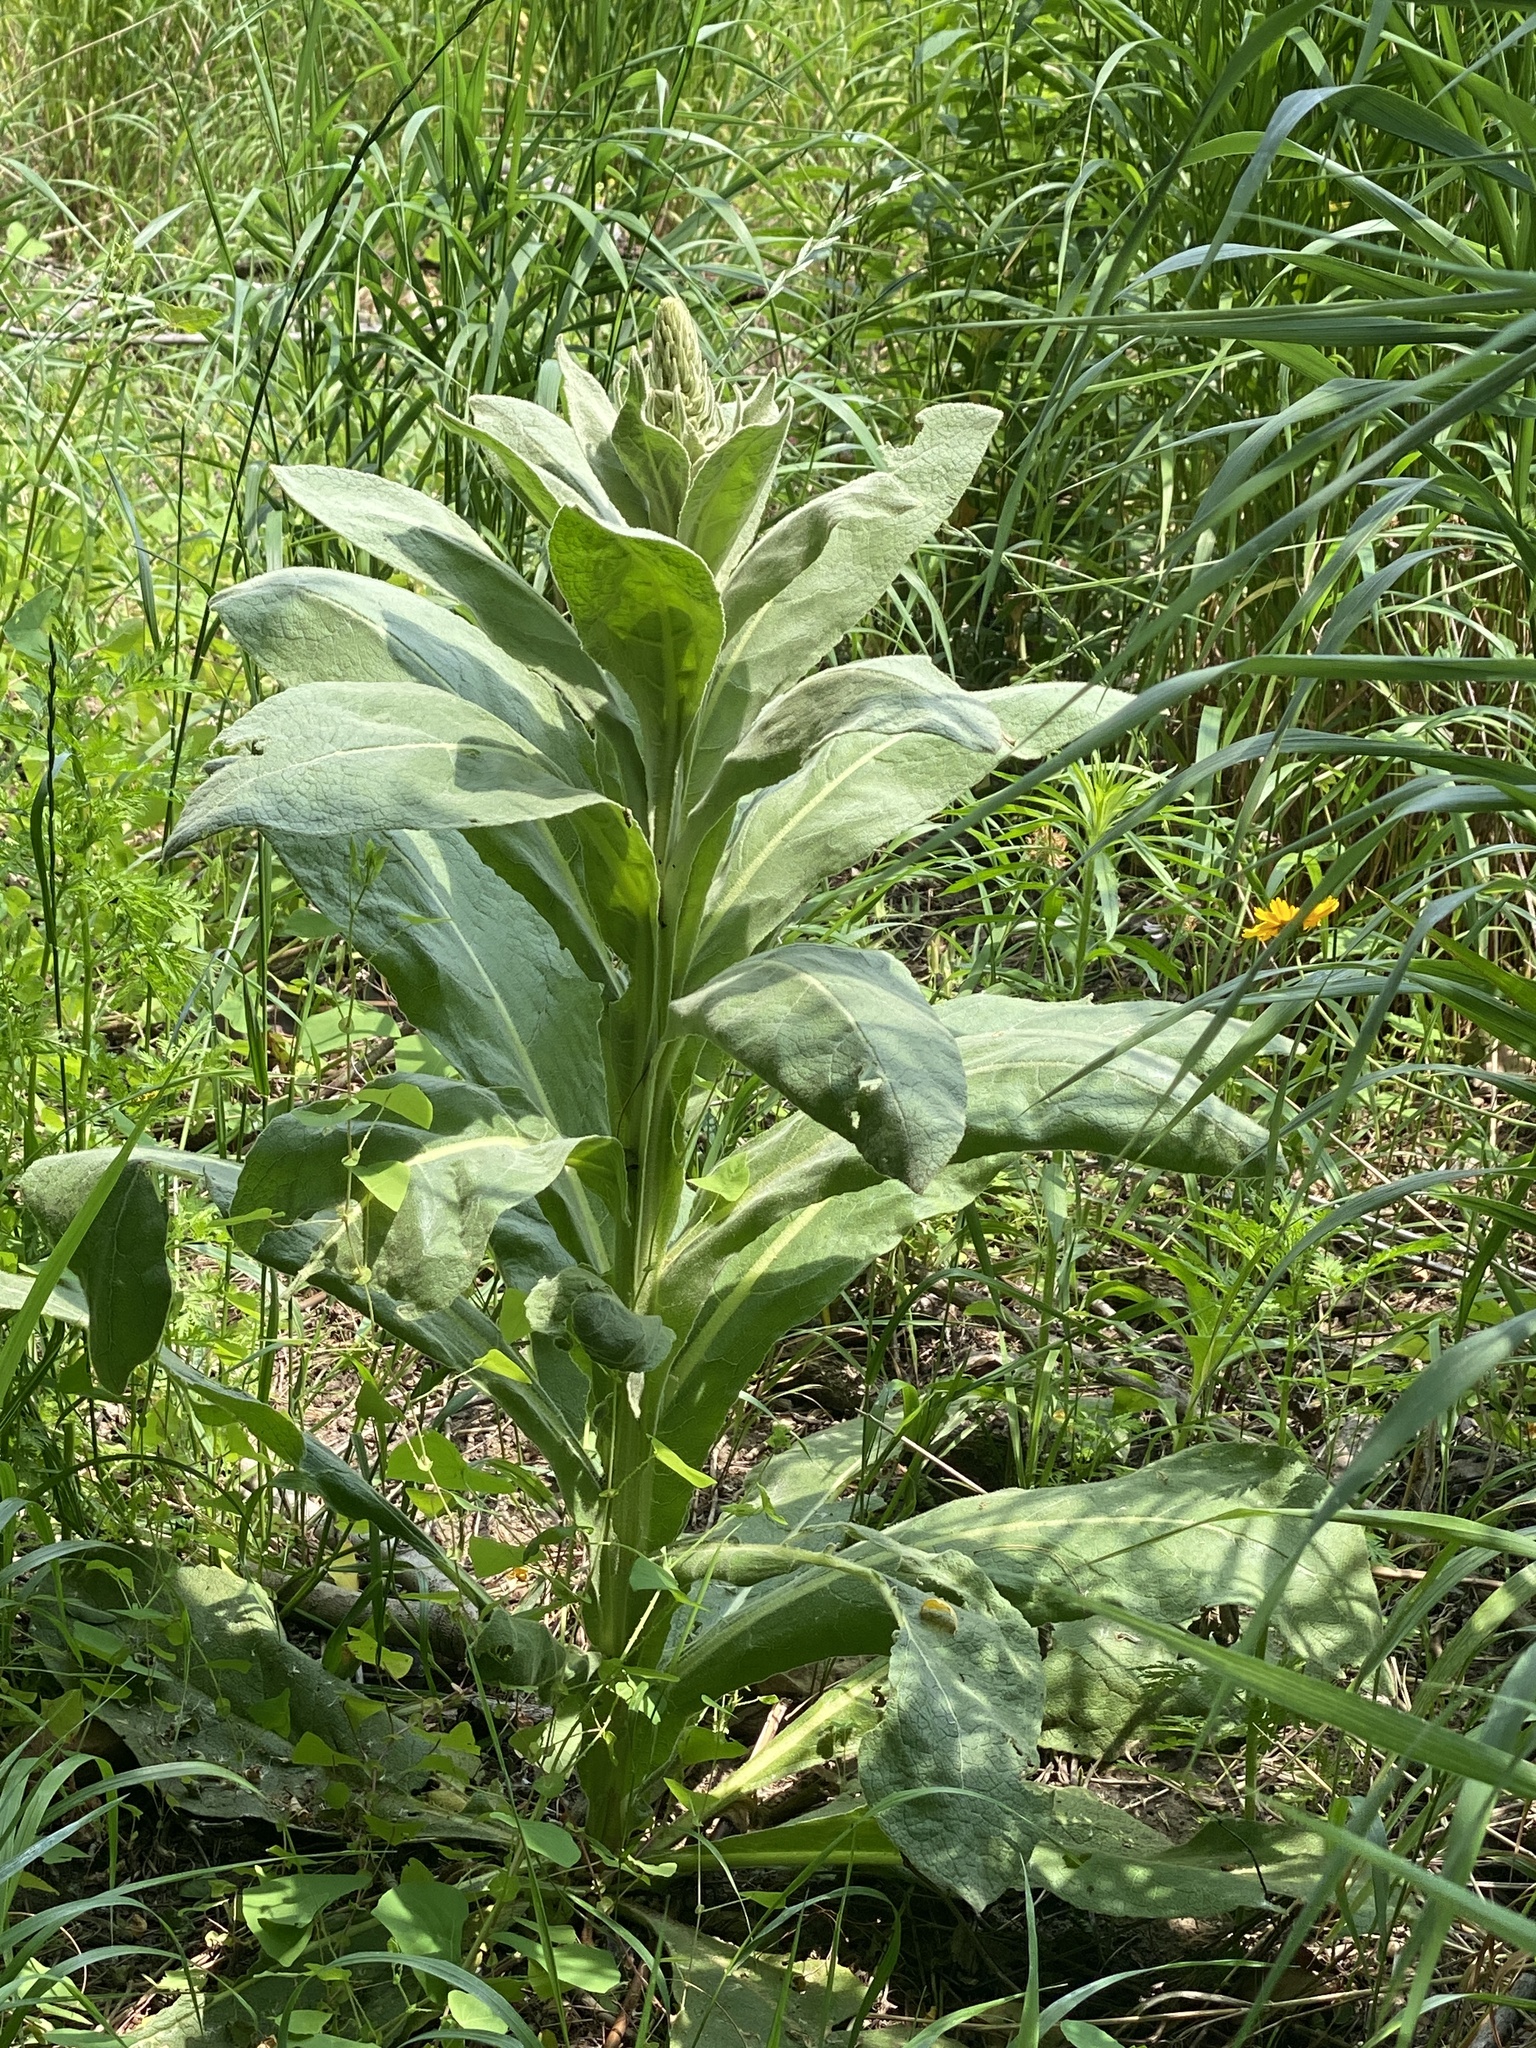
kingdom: Plantae
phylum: Tracheophyta
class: Magnoliopsida
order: Lamiales
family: Scrophulariaceae
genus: Verbascum
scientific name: Verbascum thapsus
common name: Common mullein
